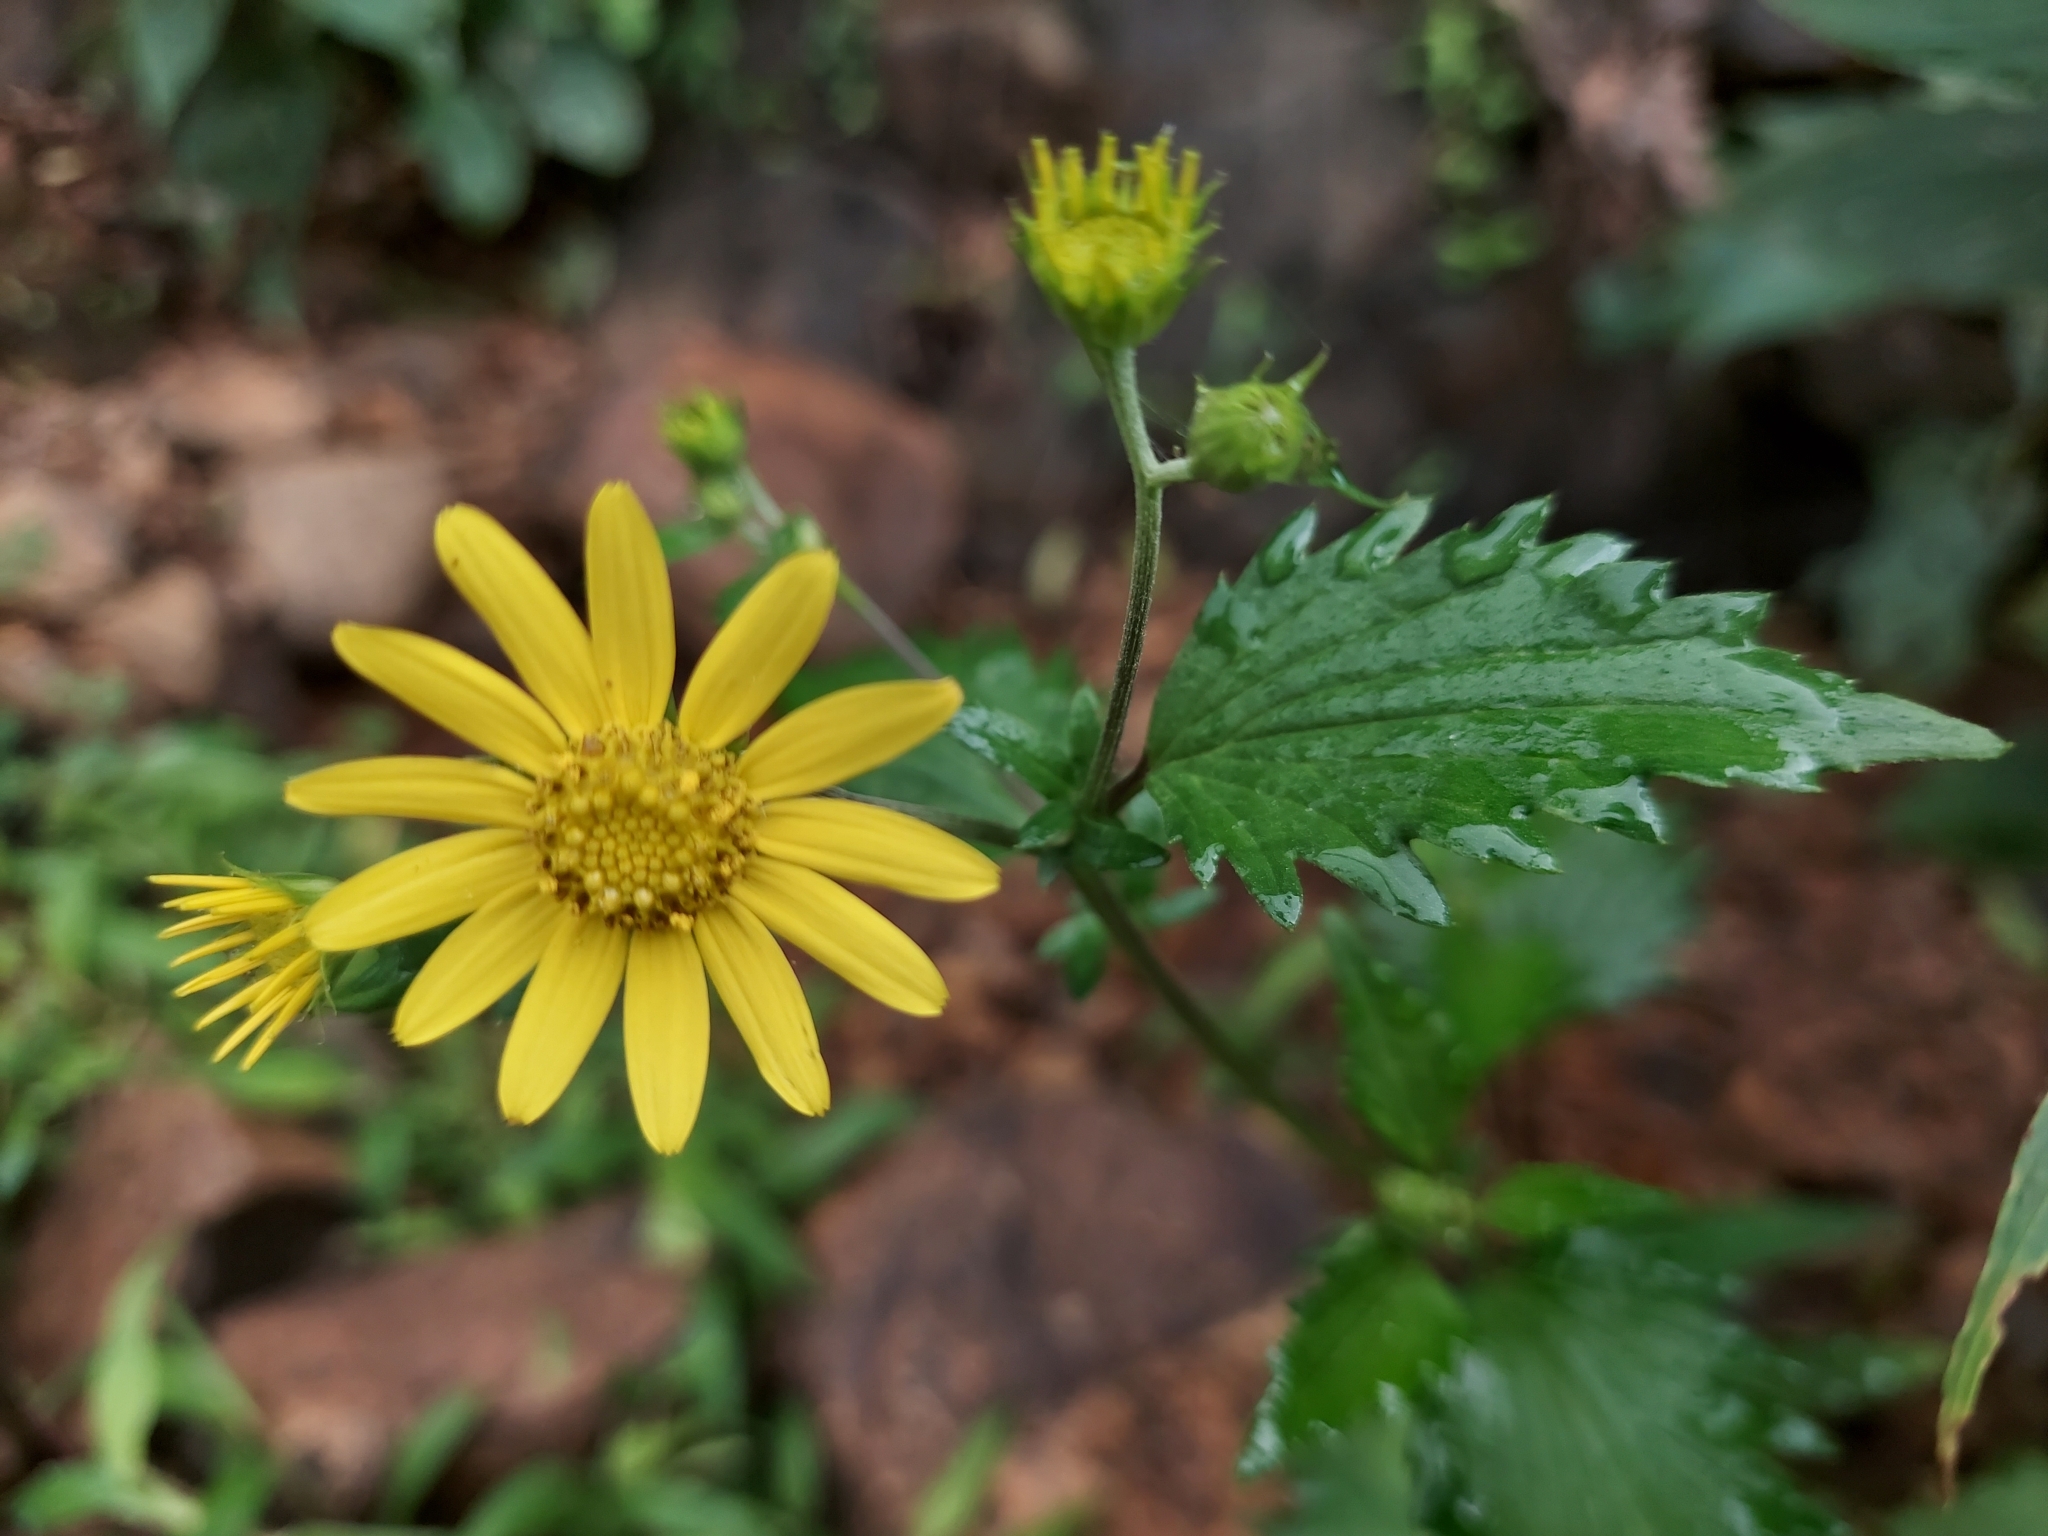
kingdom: Plantae
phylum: Tracheophyta
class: Magnoliopsida
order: Asterales
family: Asteraceae
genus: Sphagneticola
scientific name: Sphagneticola trilobata
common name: Bay biscayne creeping-oxeye
